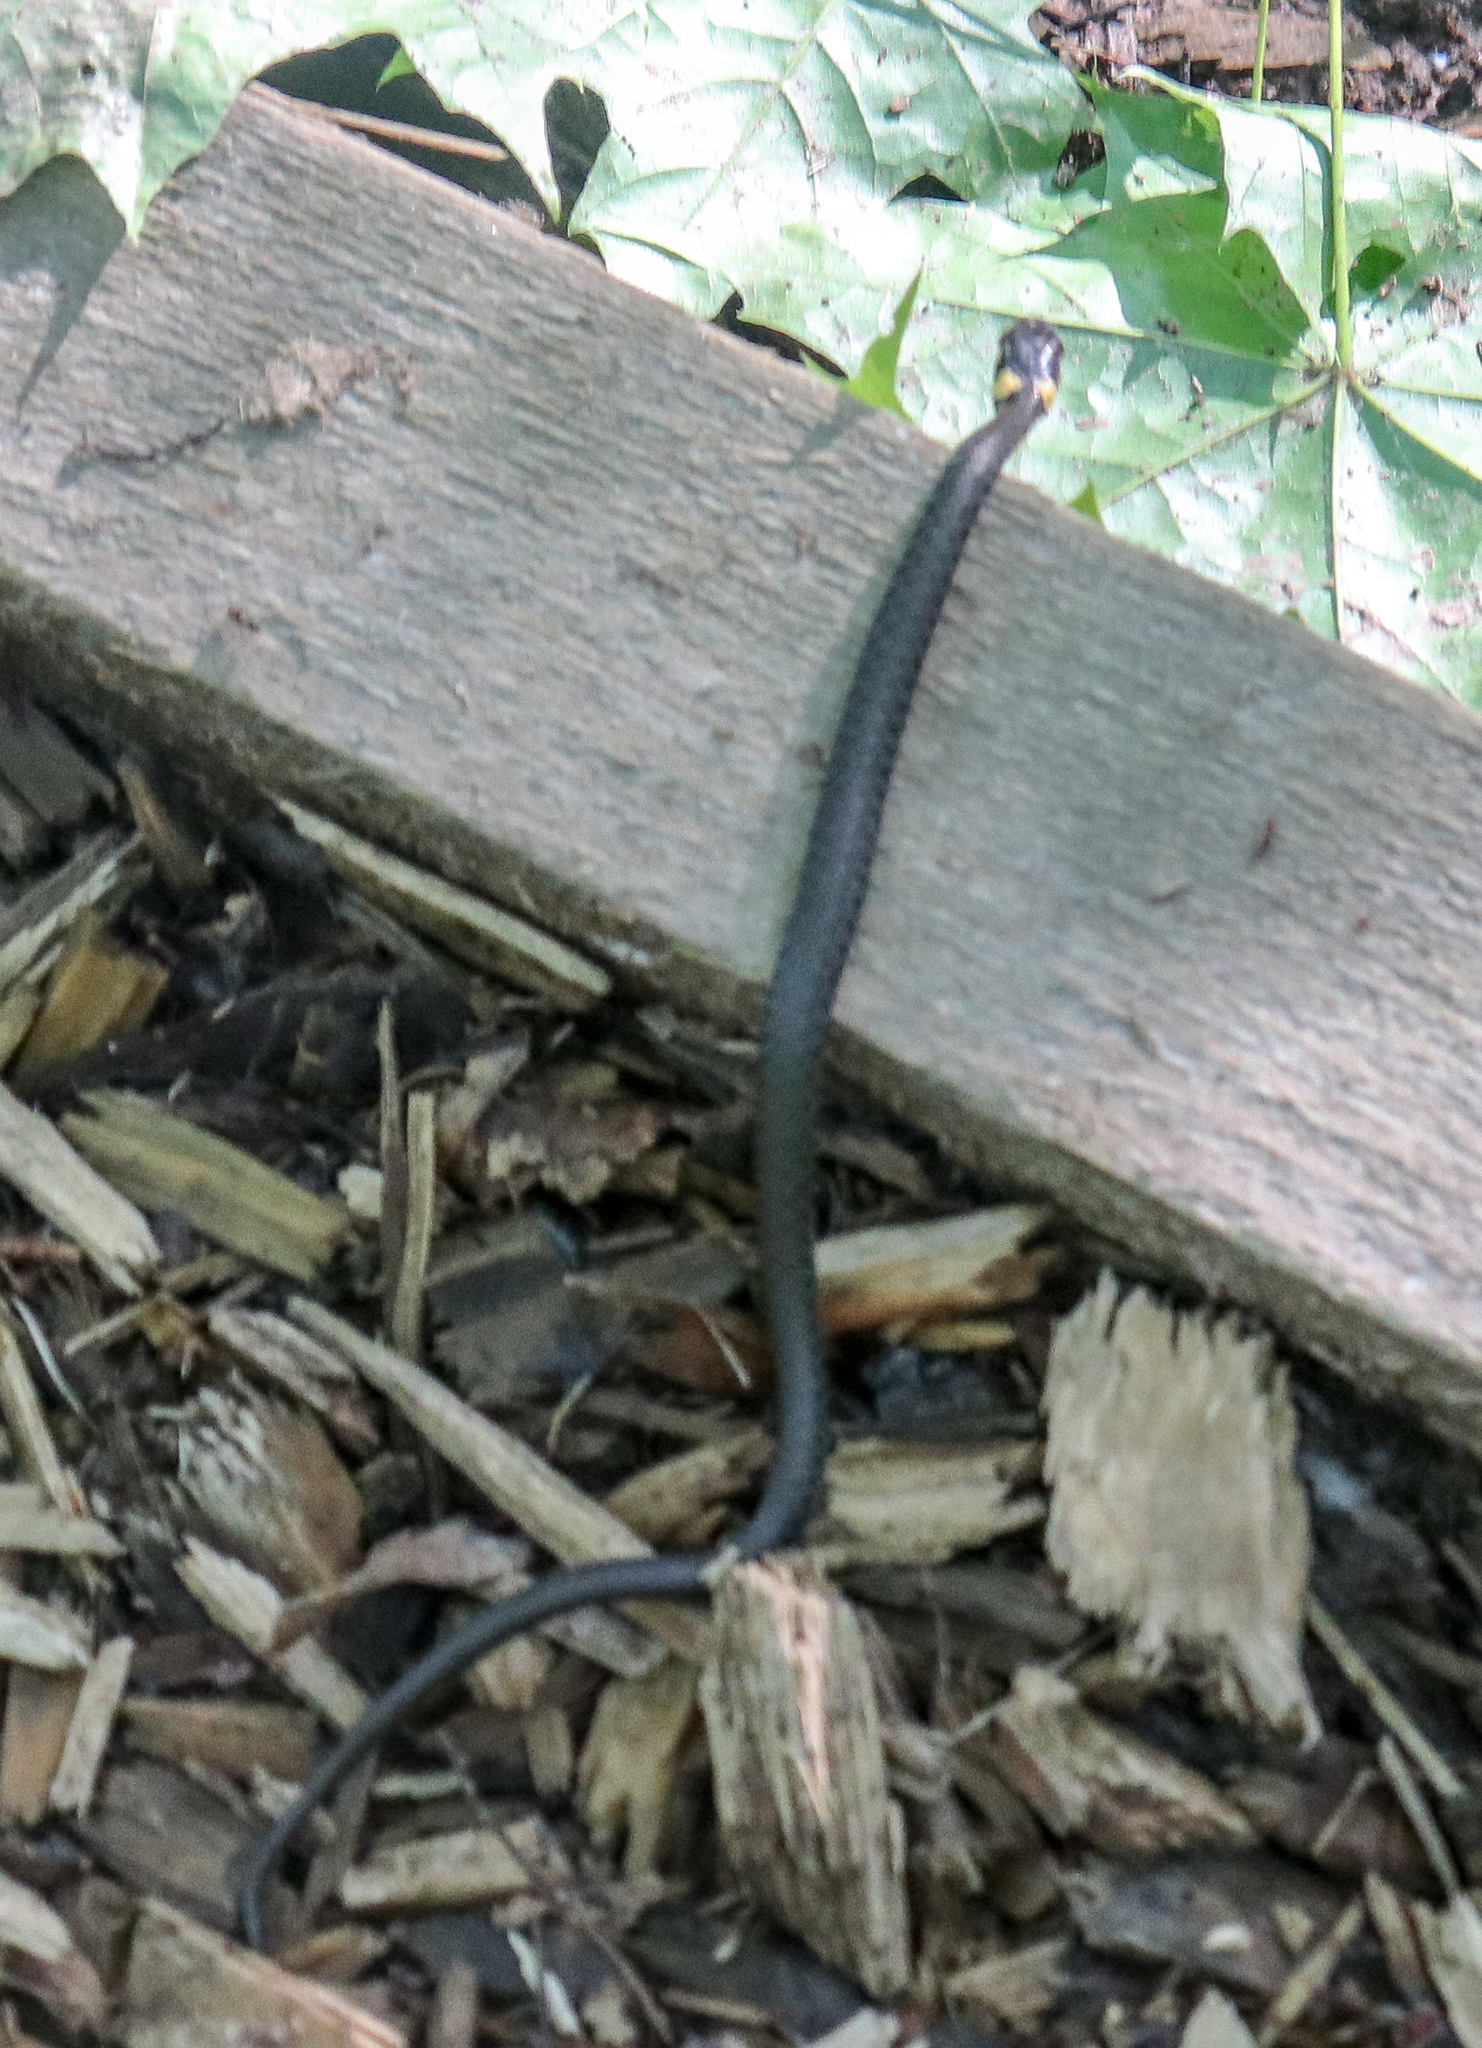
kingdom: Animalia
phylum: Chordata
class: Squamata
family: Colubridae
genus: Natrix
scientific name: Natrix natrix
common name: Grass snake
